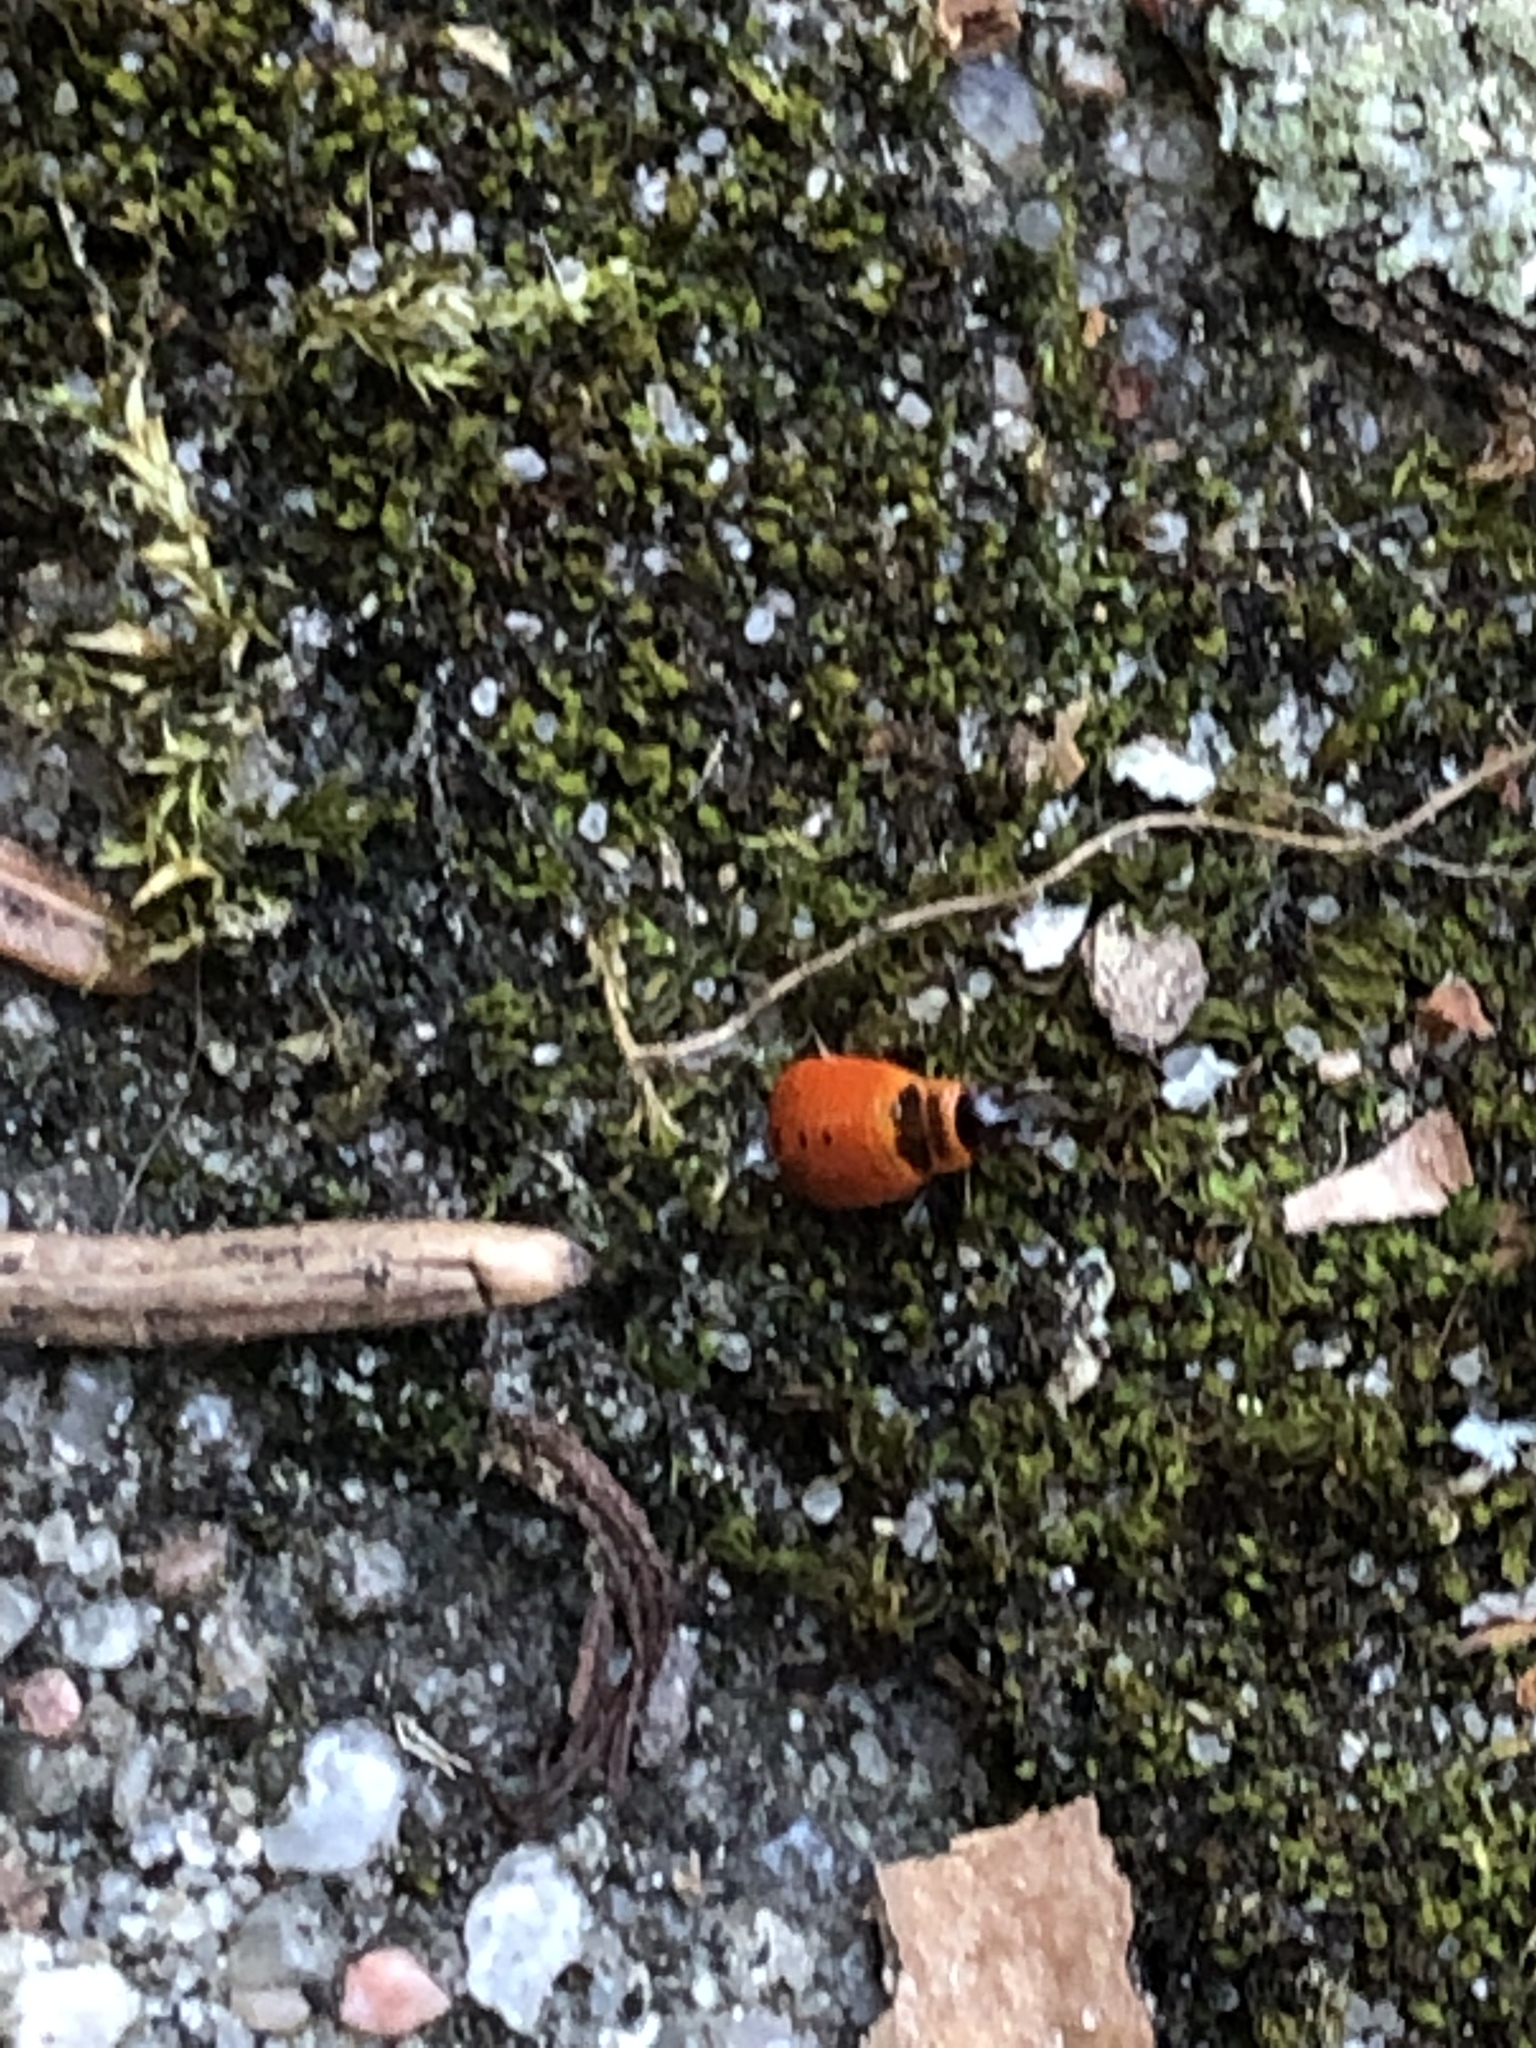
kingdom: Animalia
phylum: Arthropoda
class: Insecta
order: Hemiptera
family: Pyrrhocoridae
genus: Pyrrhocoris
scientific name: Pyrrhocoris apterus
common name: Firebug
